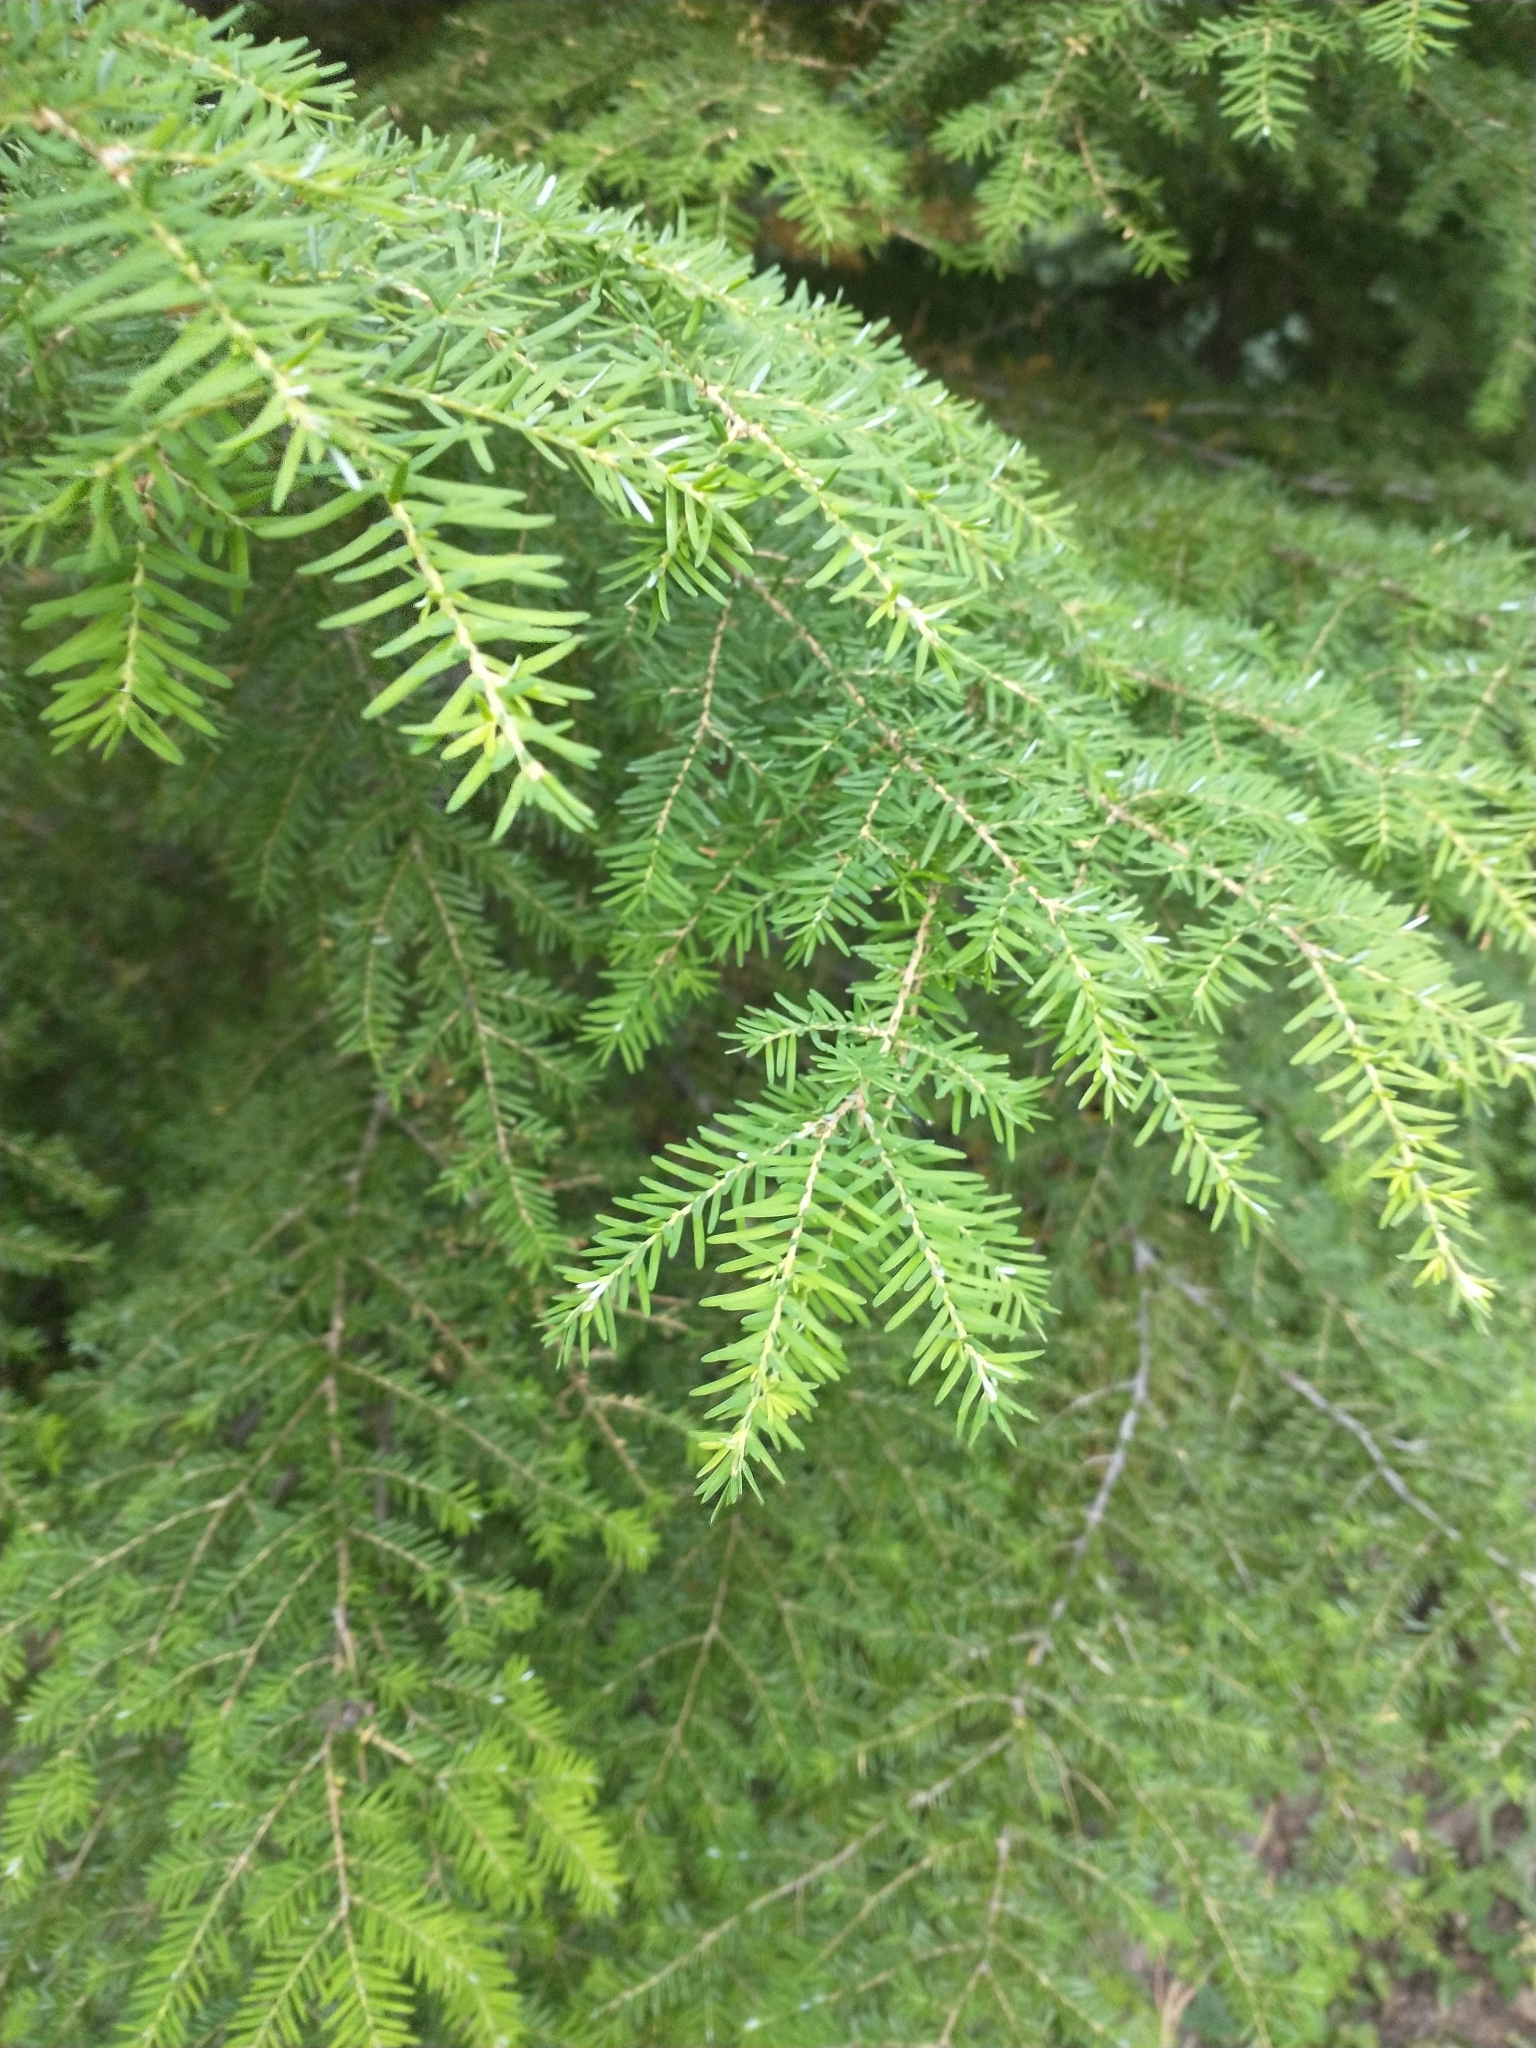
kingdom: Plantae
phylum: Tracheophyta
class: Pinopsida
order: Pinales
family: Pinaceae
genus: Tsuga
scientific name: Tsuga heterophylla
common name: Western hemlock
